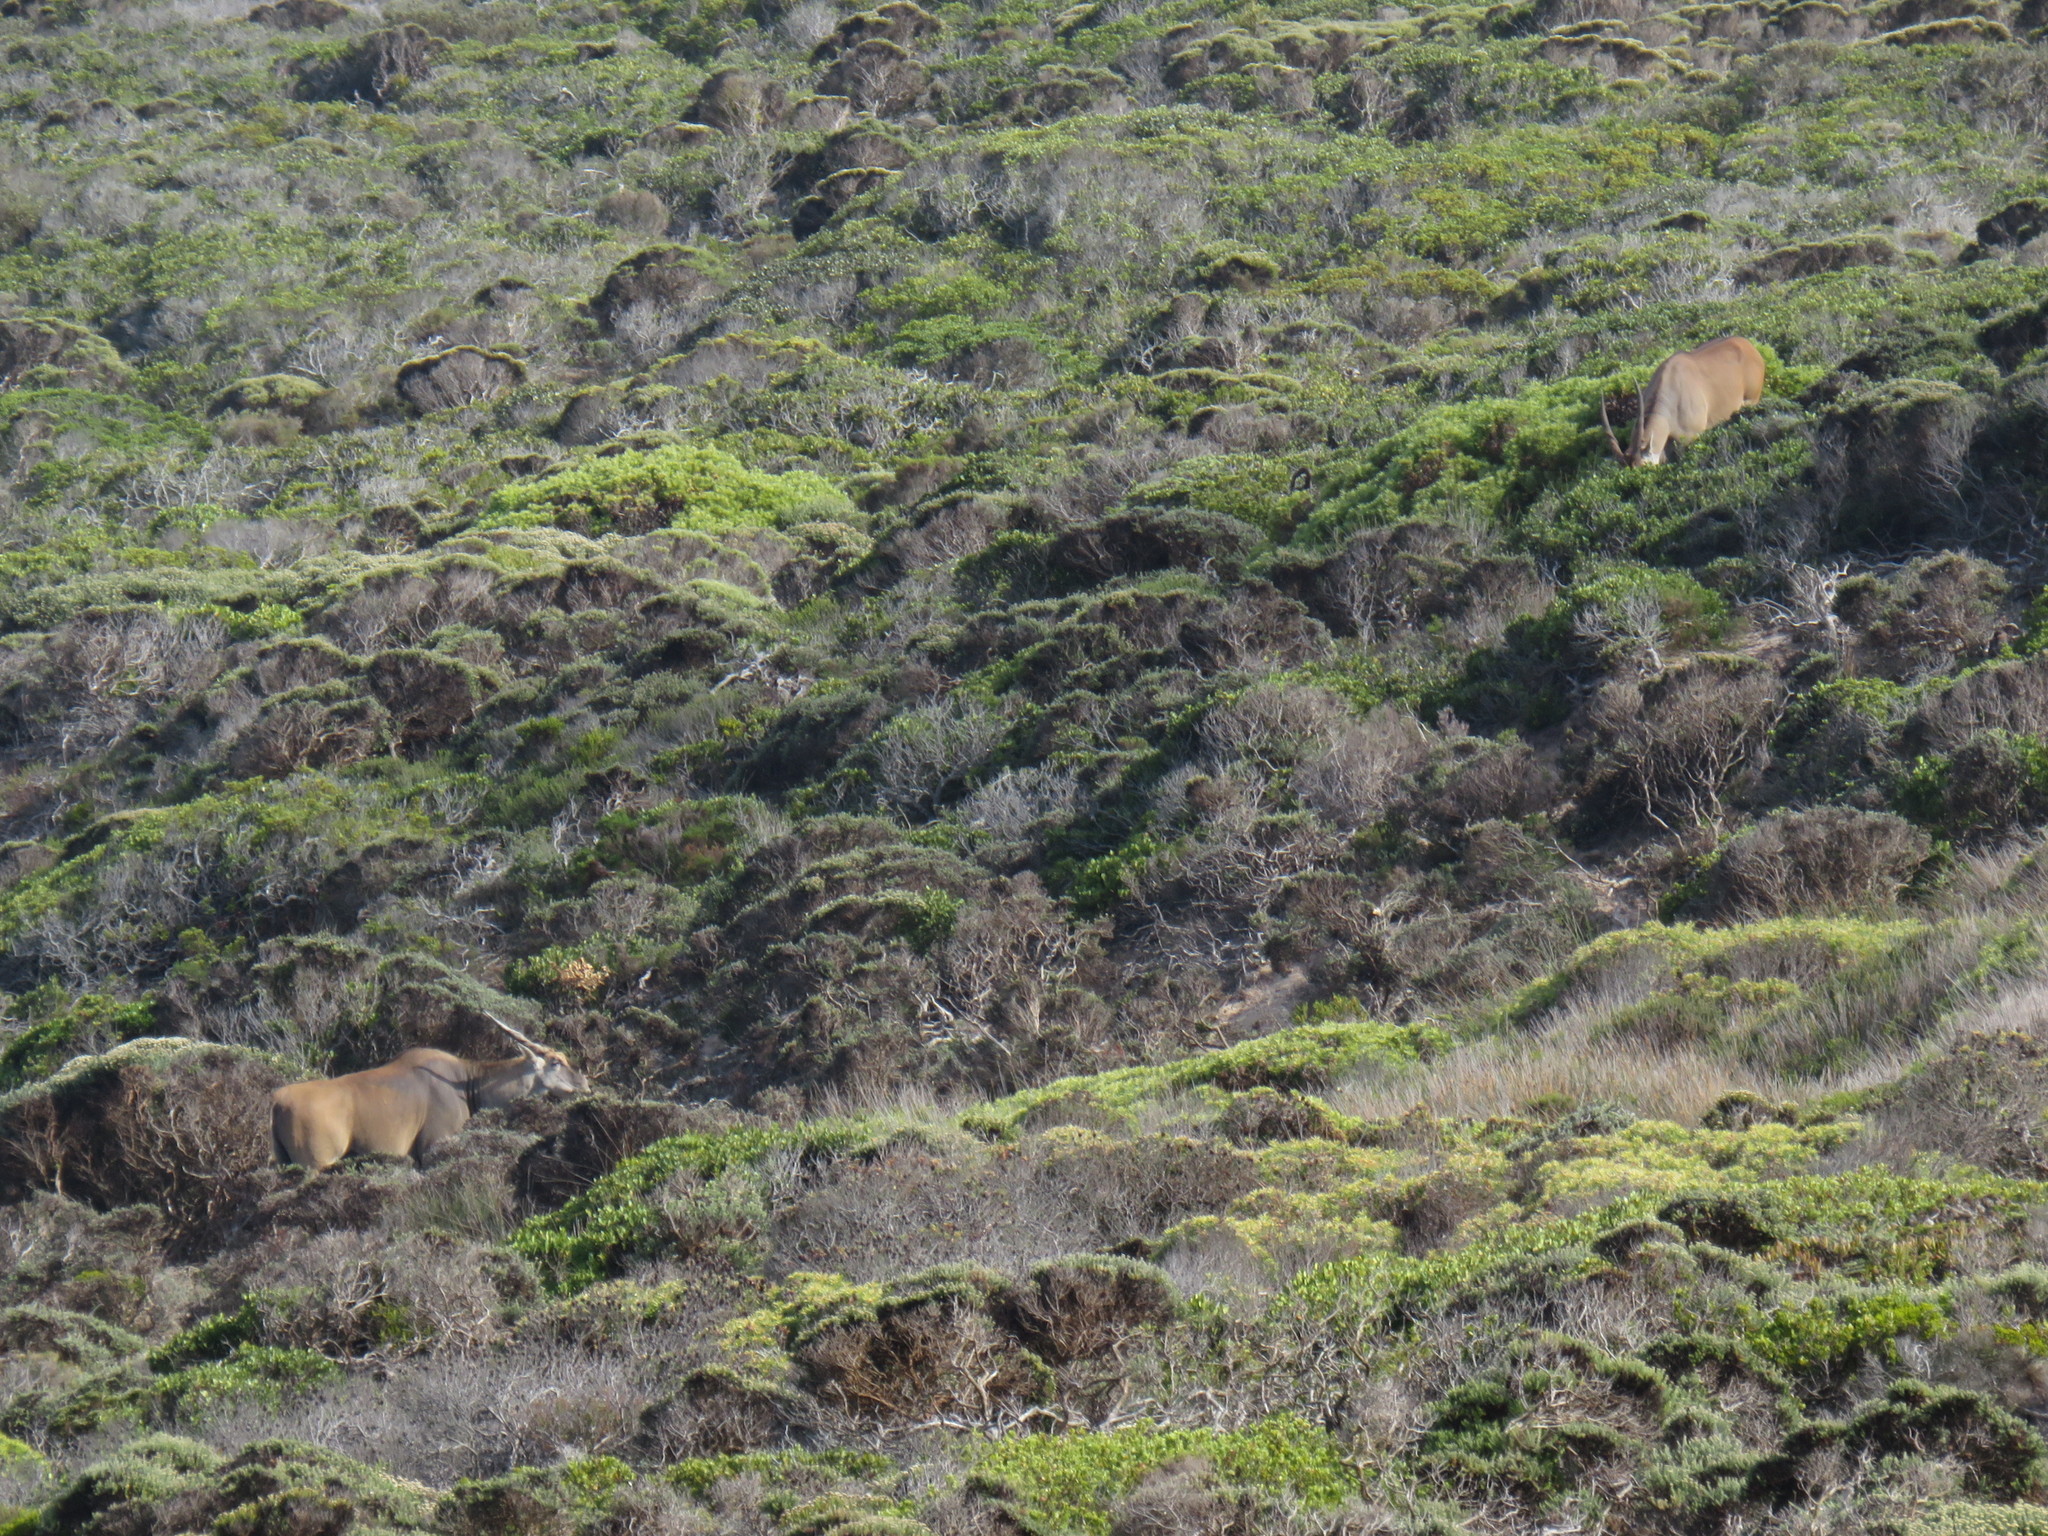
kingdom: Animalia
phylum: Chordata
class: Mammalia
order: Artiodactyla
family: Bovidae
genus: Taurotragus
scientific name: Taurotragus oryx
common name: Common eland
